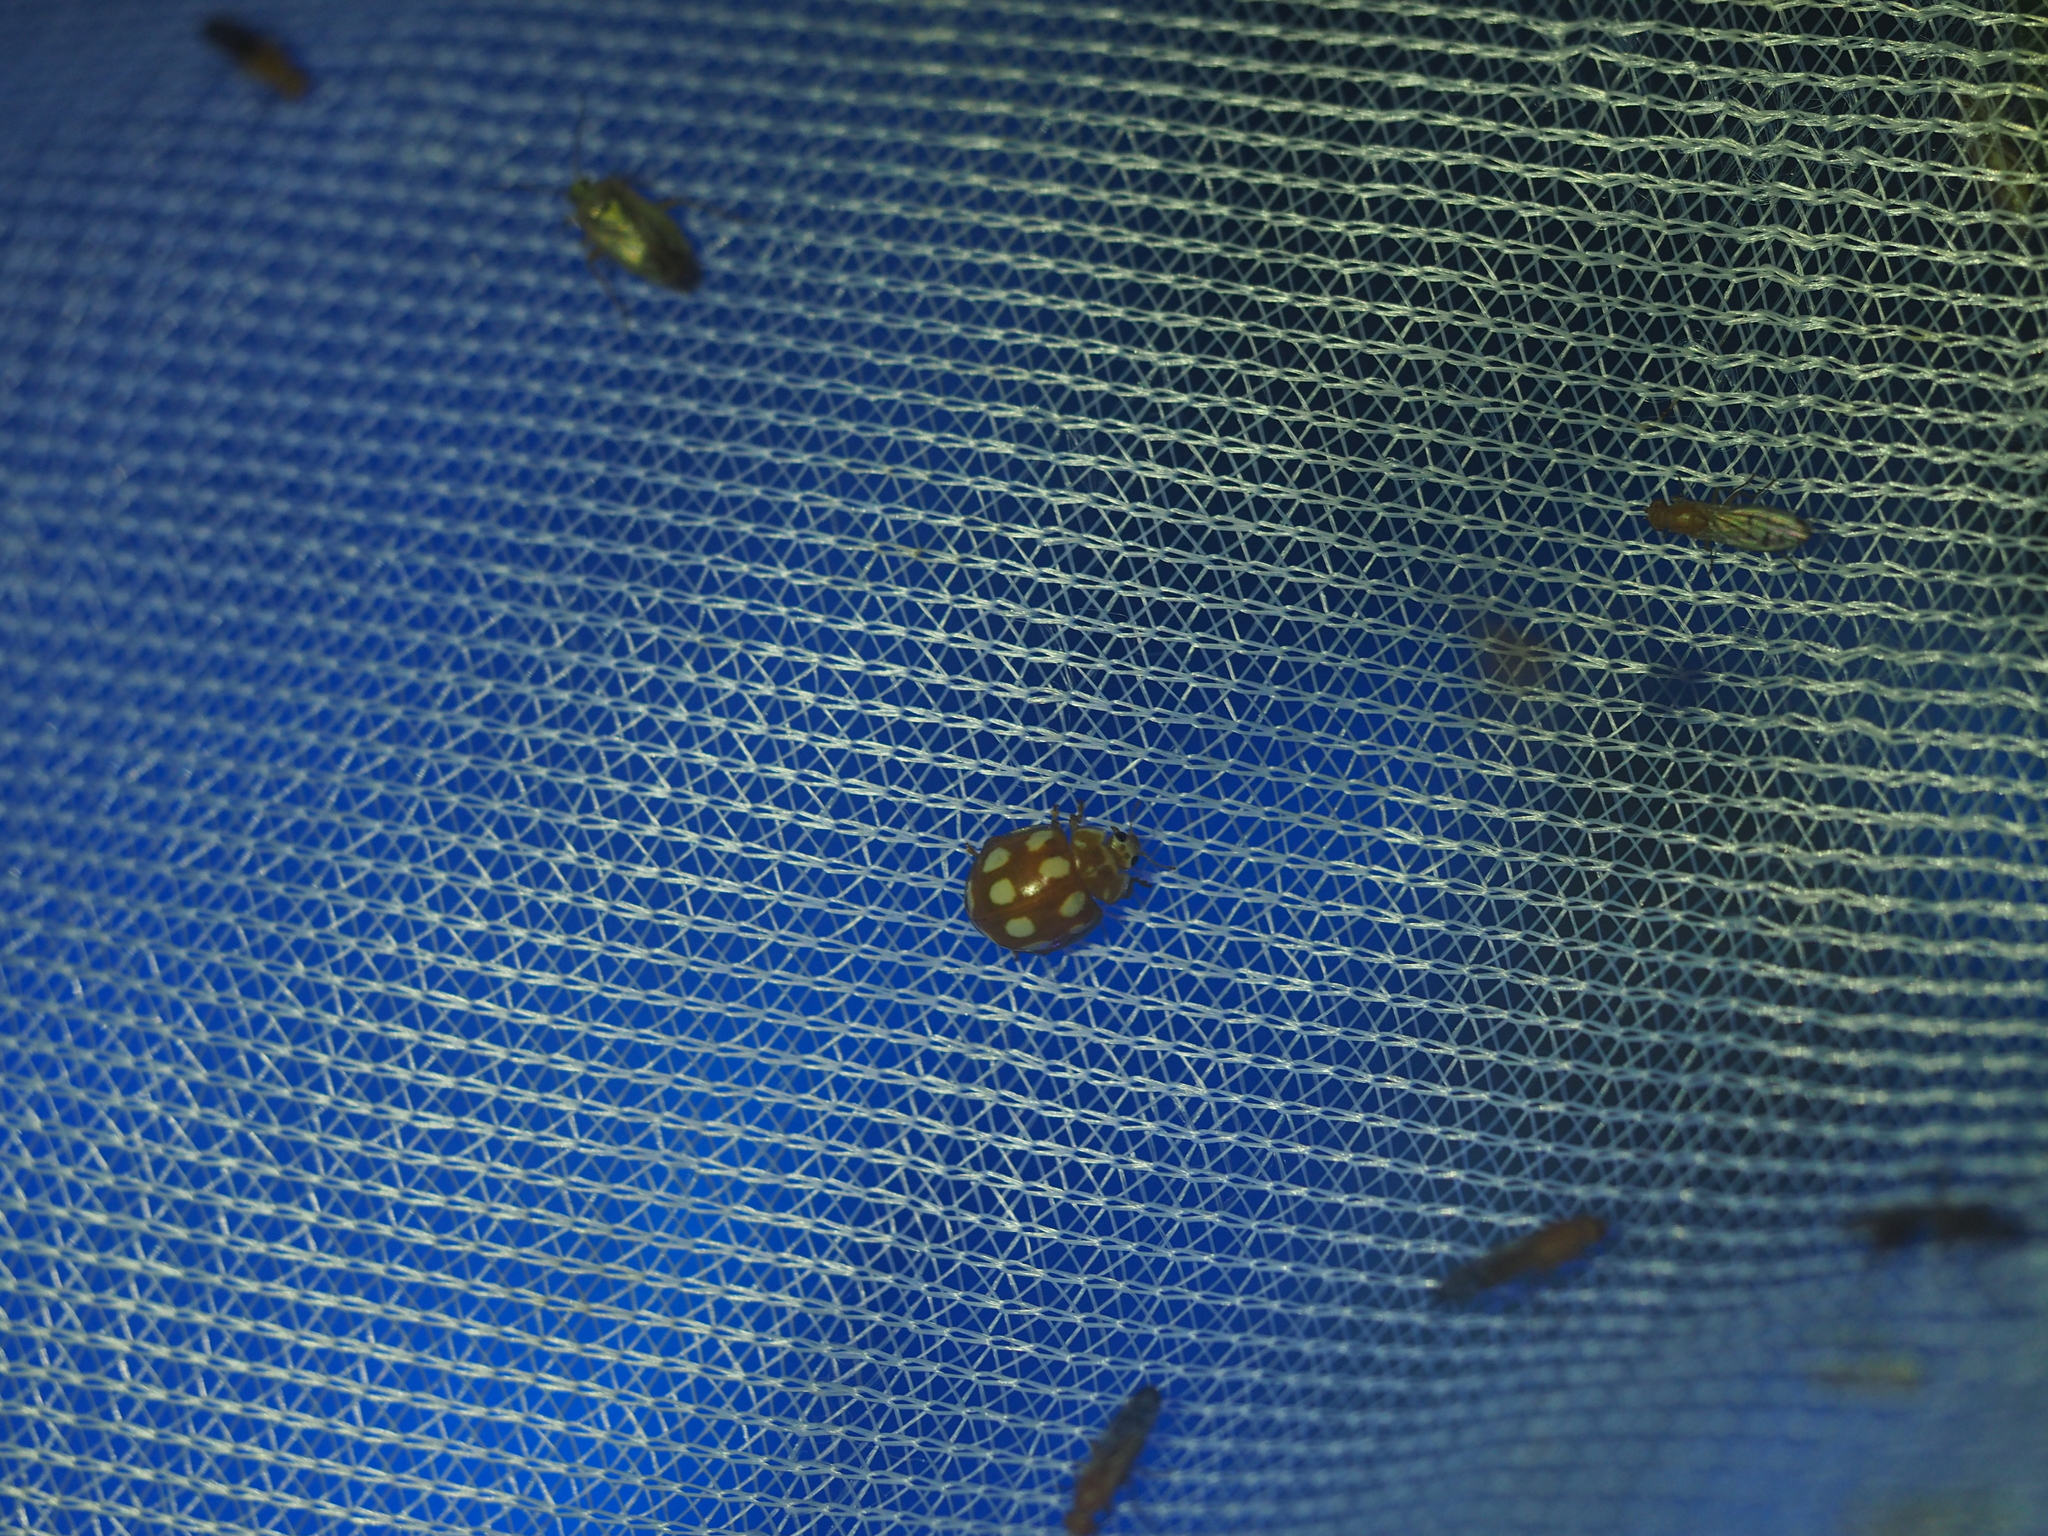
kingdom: Animalia
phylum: Arthropoda
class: Insecta
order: Coleoptera
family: Coccinellidae
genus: Calvia
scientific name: Calvia decemguttata
